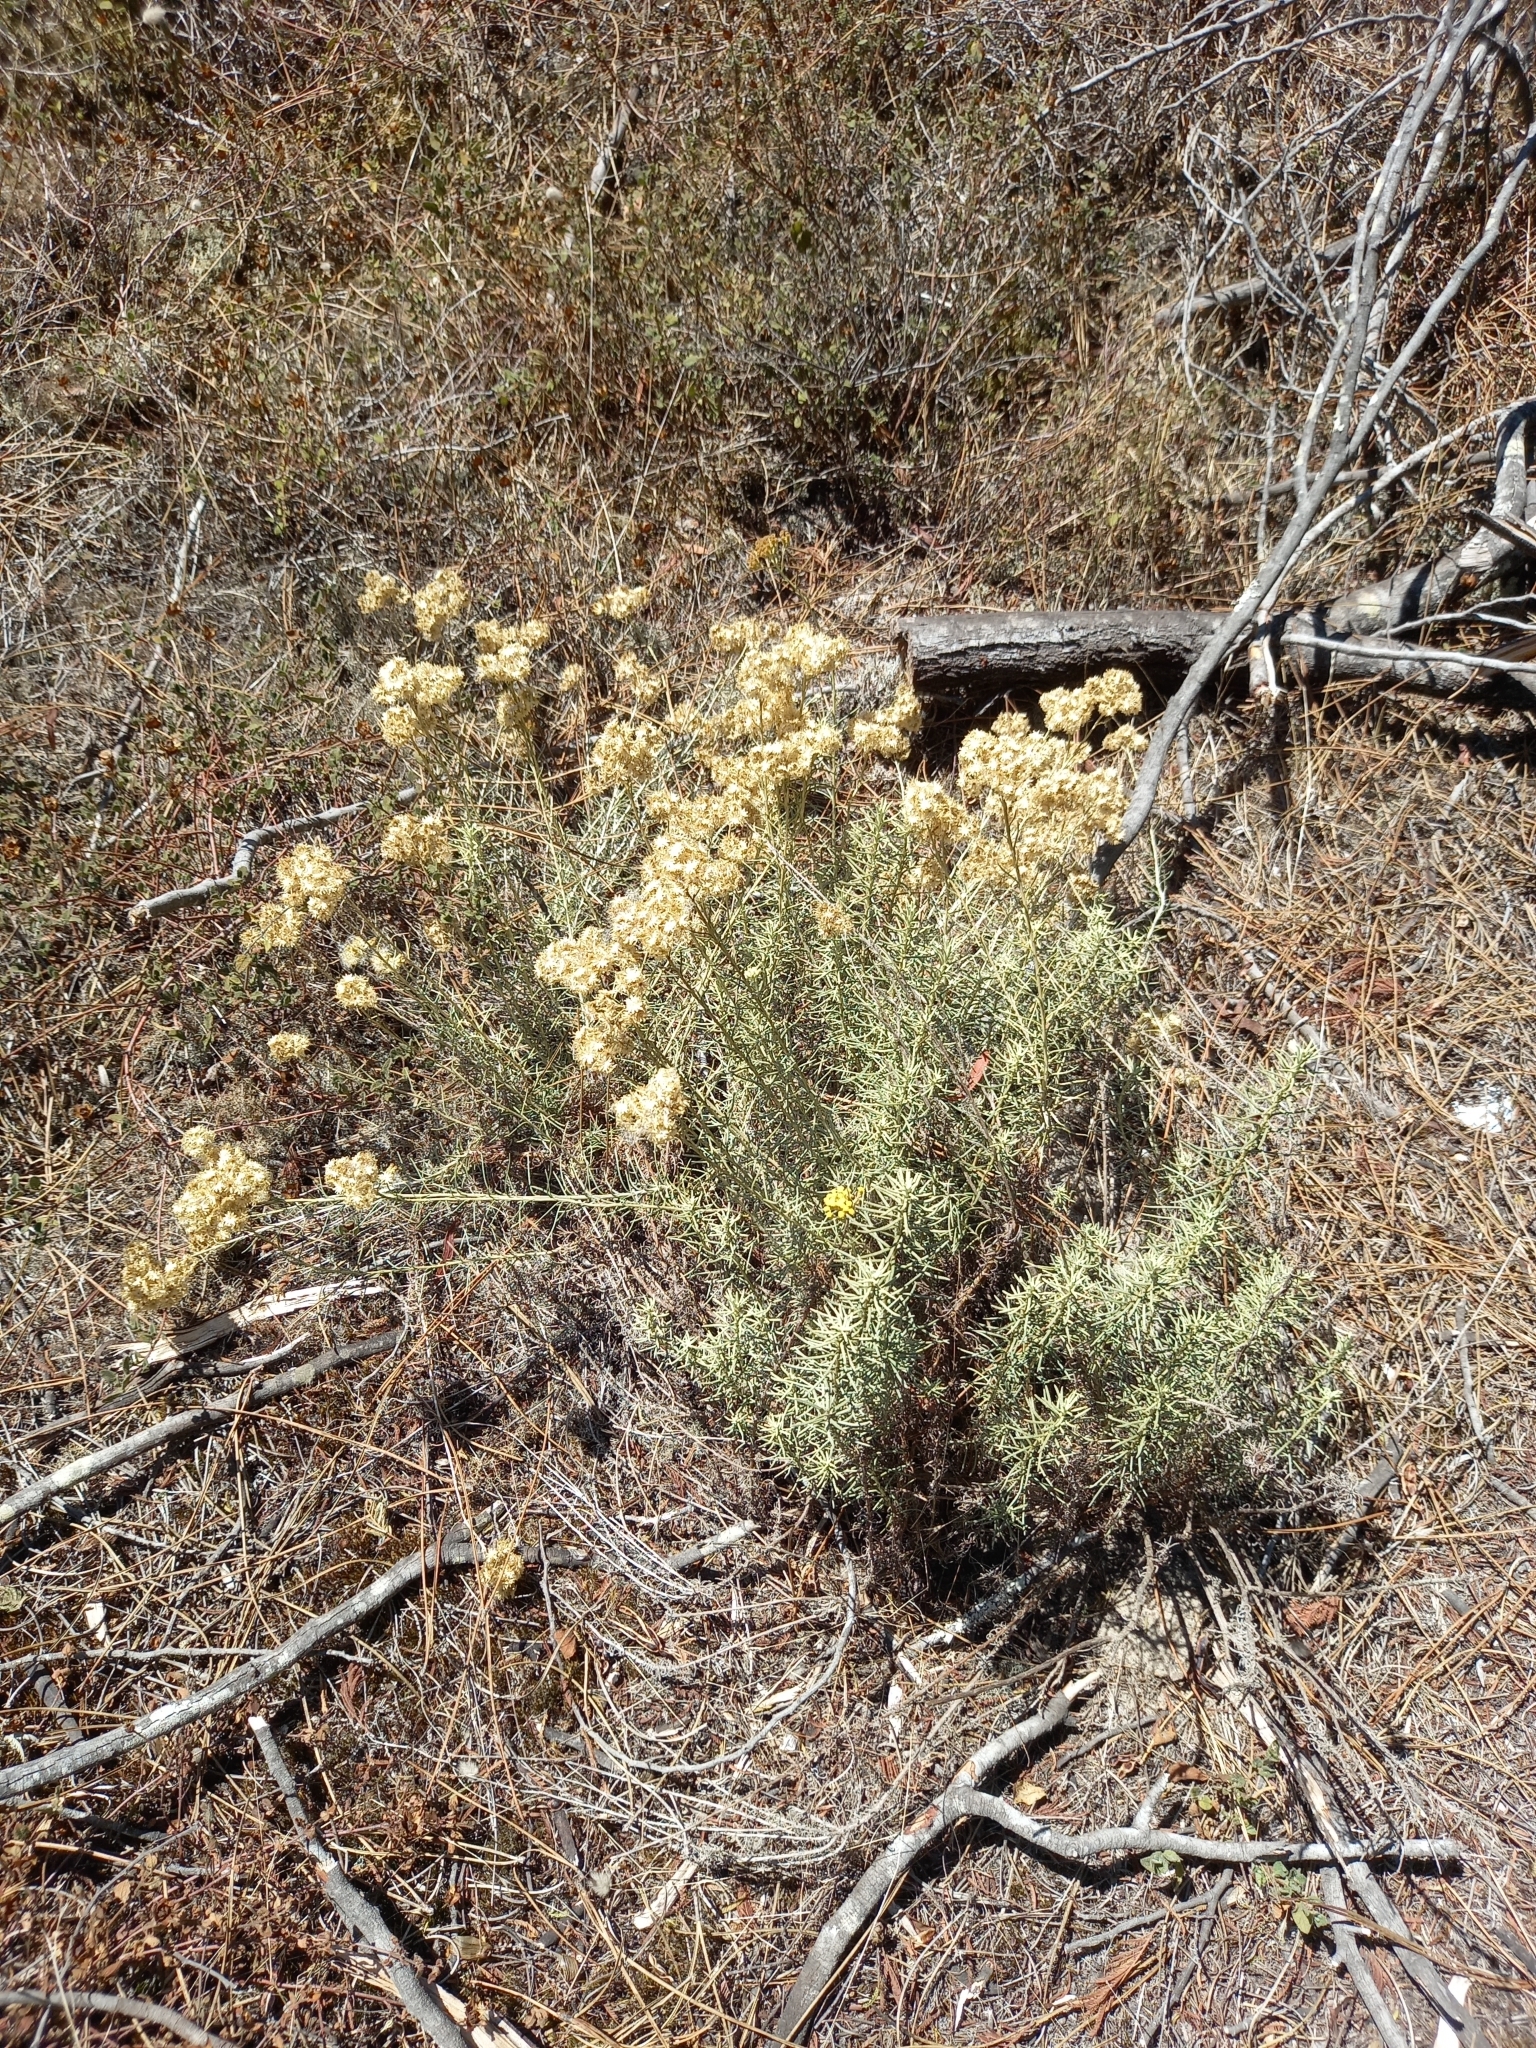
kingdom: Plantae
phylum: Tracheophyta
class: Magnoliopsida
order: Asterales
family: Asteraceae
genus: Helichrysum
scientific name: Helichrysum serotinum
